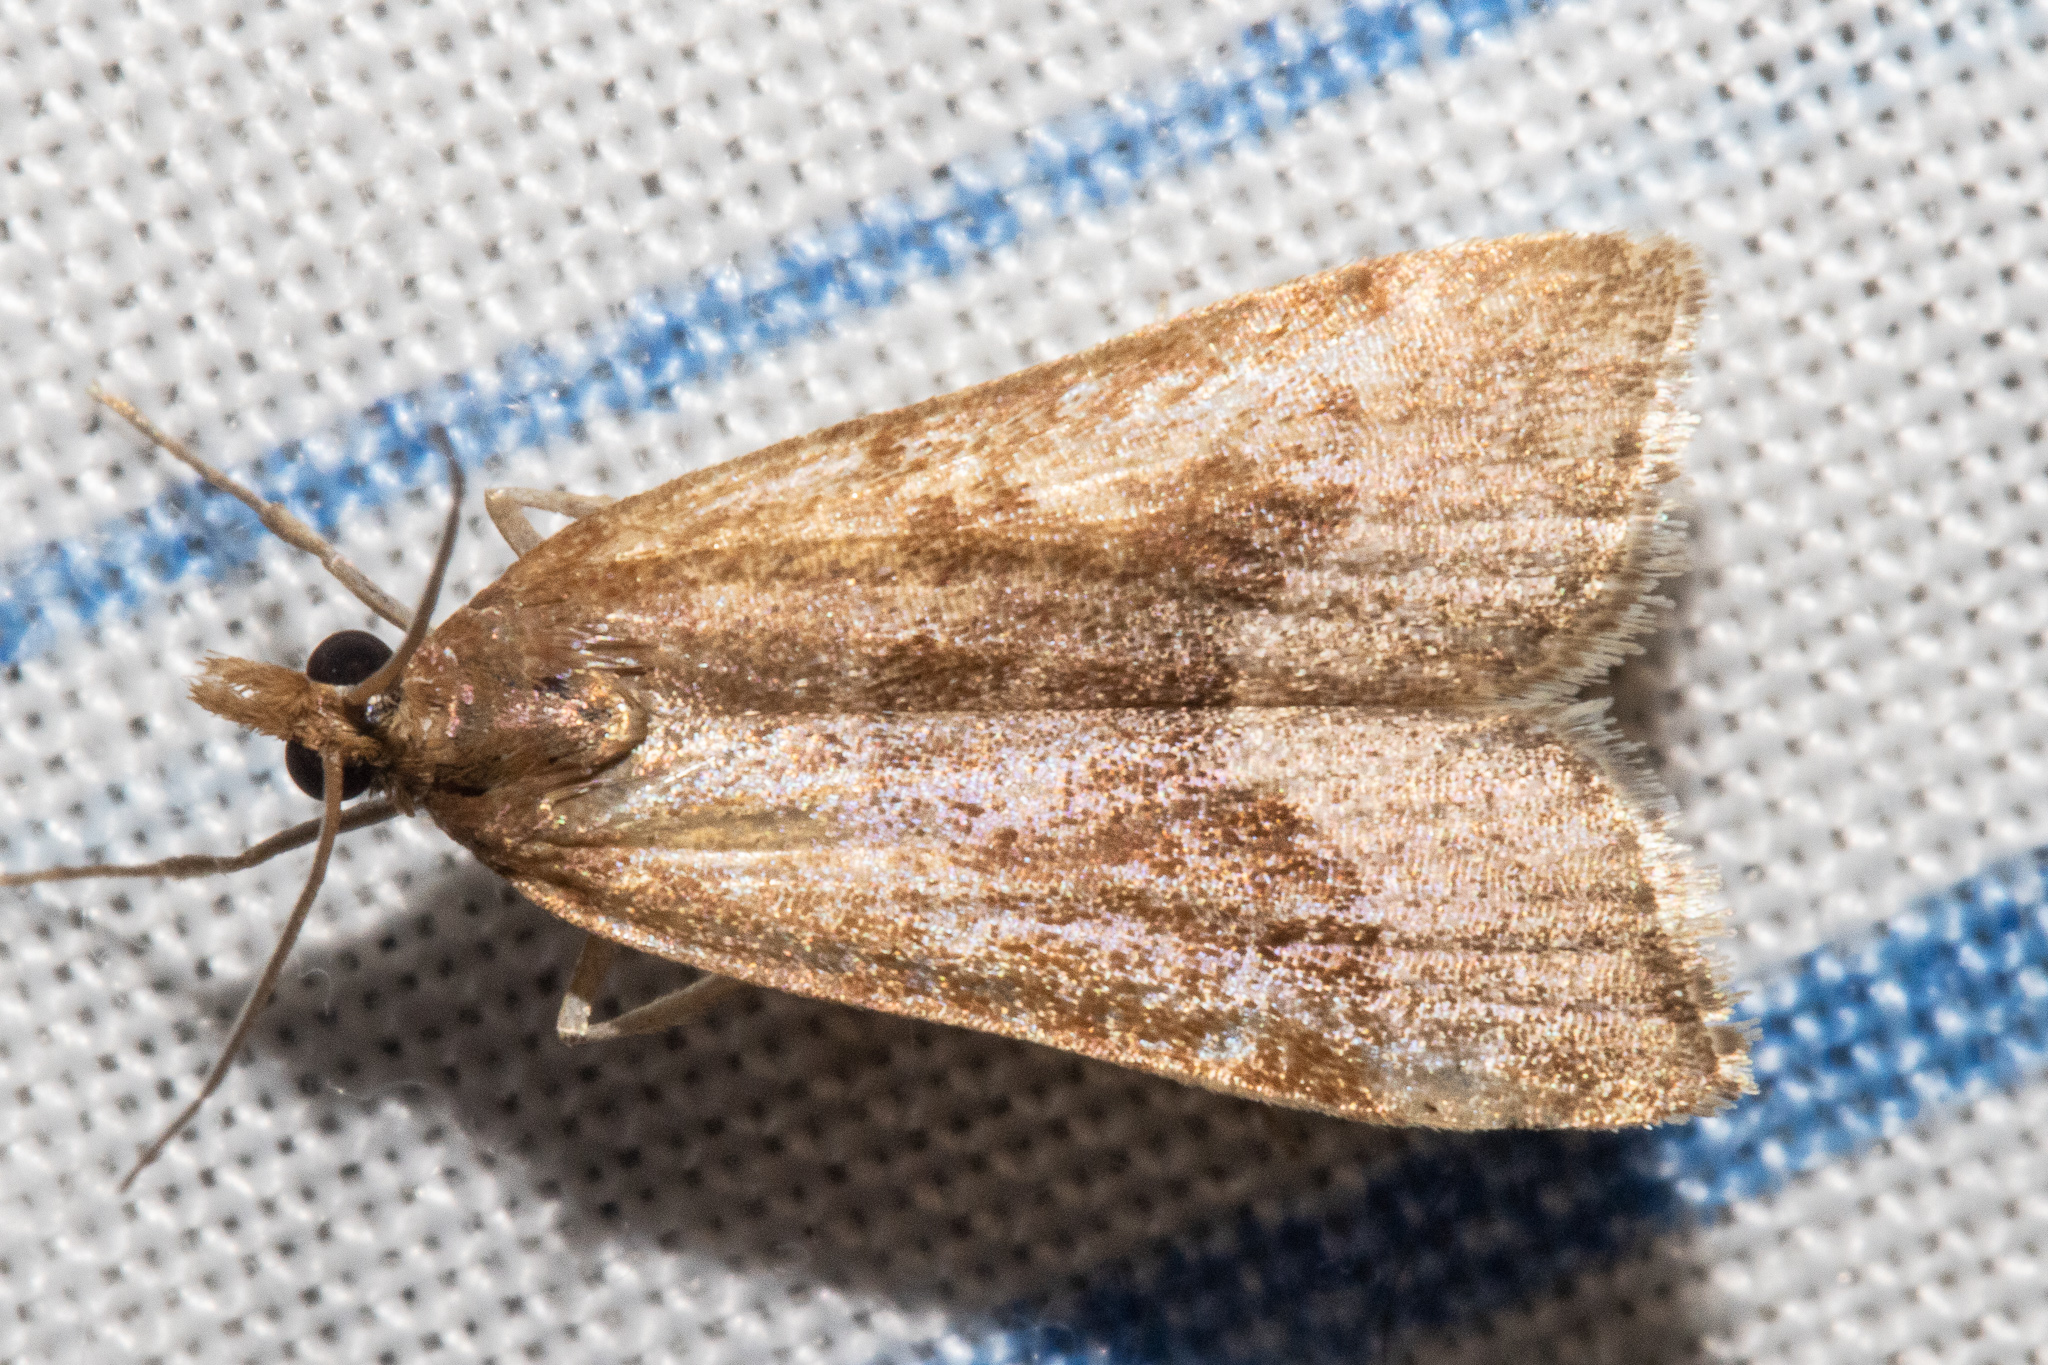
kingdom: Animalia
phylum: Arthropoda
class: Insecta
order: Lepidoptera
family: Crambidae
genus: Eudonia
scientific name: Eudonia feredayi
